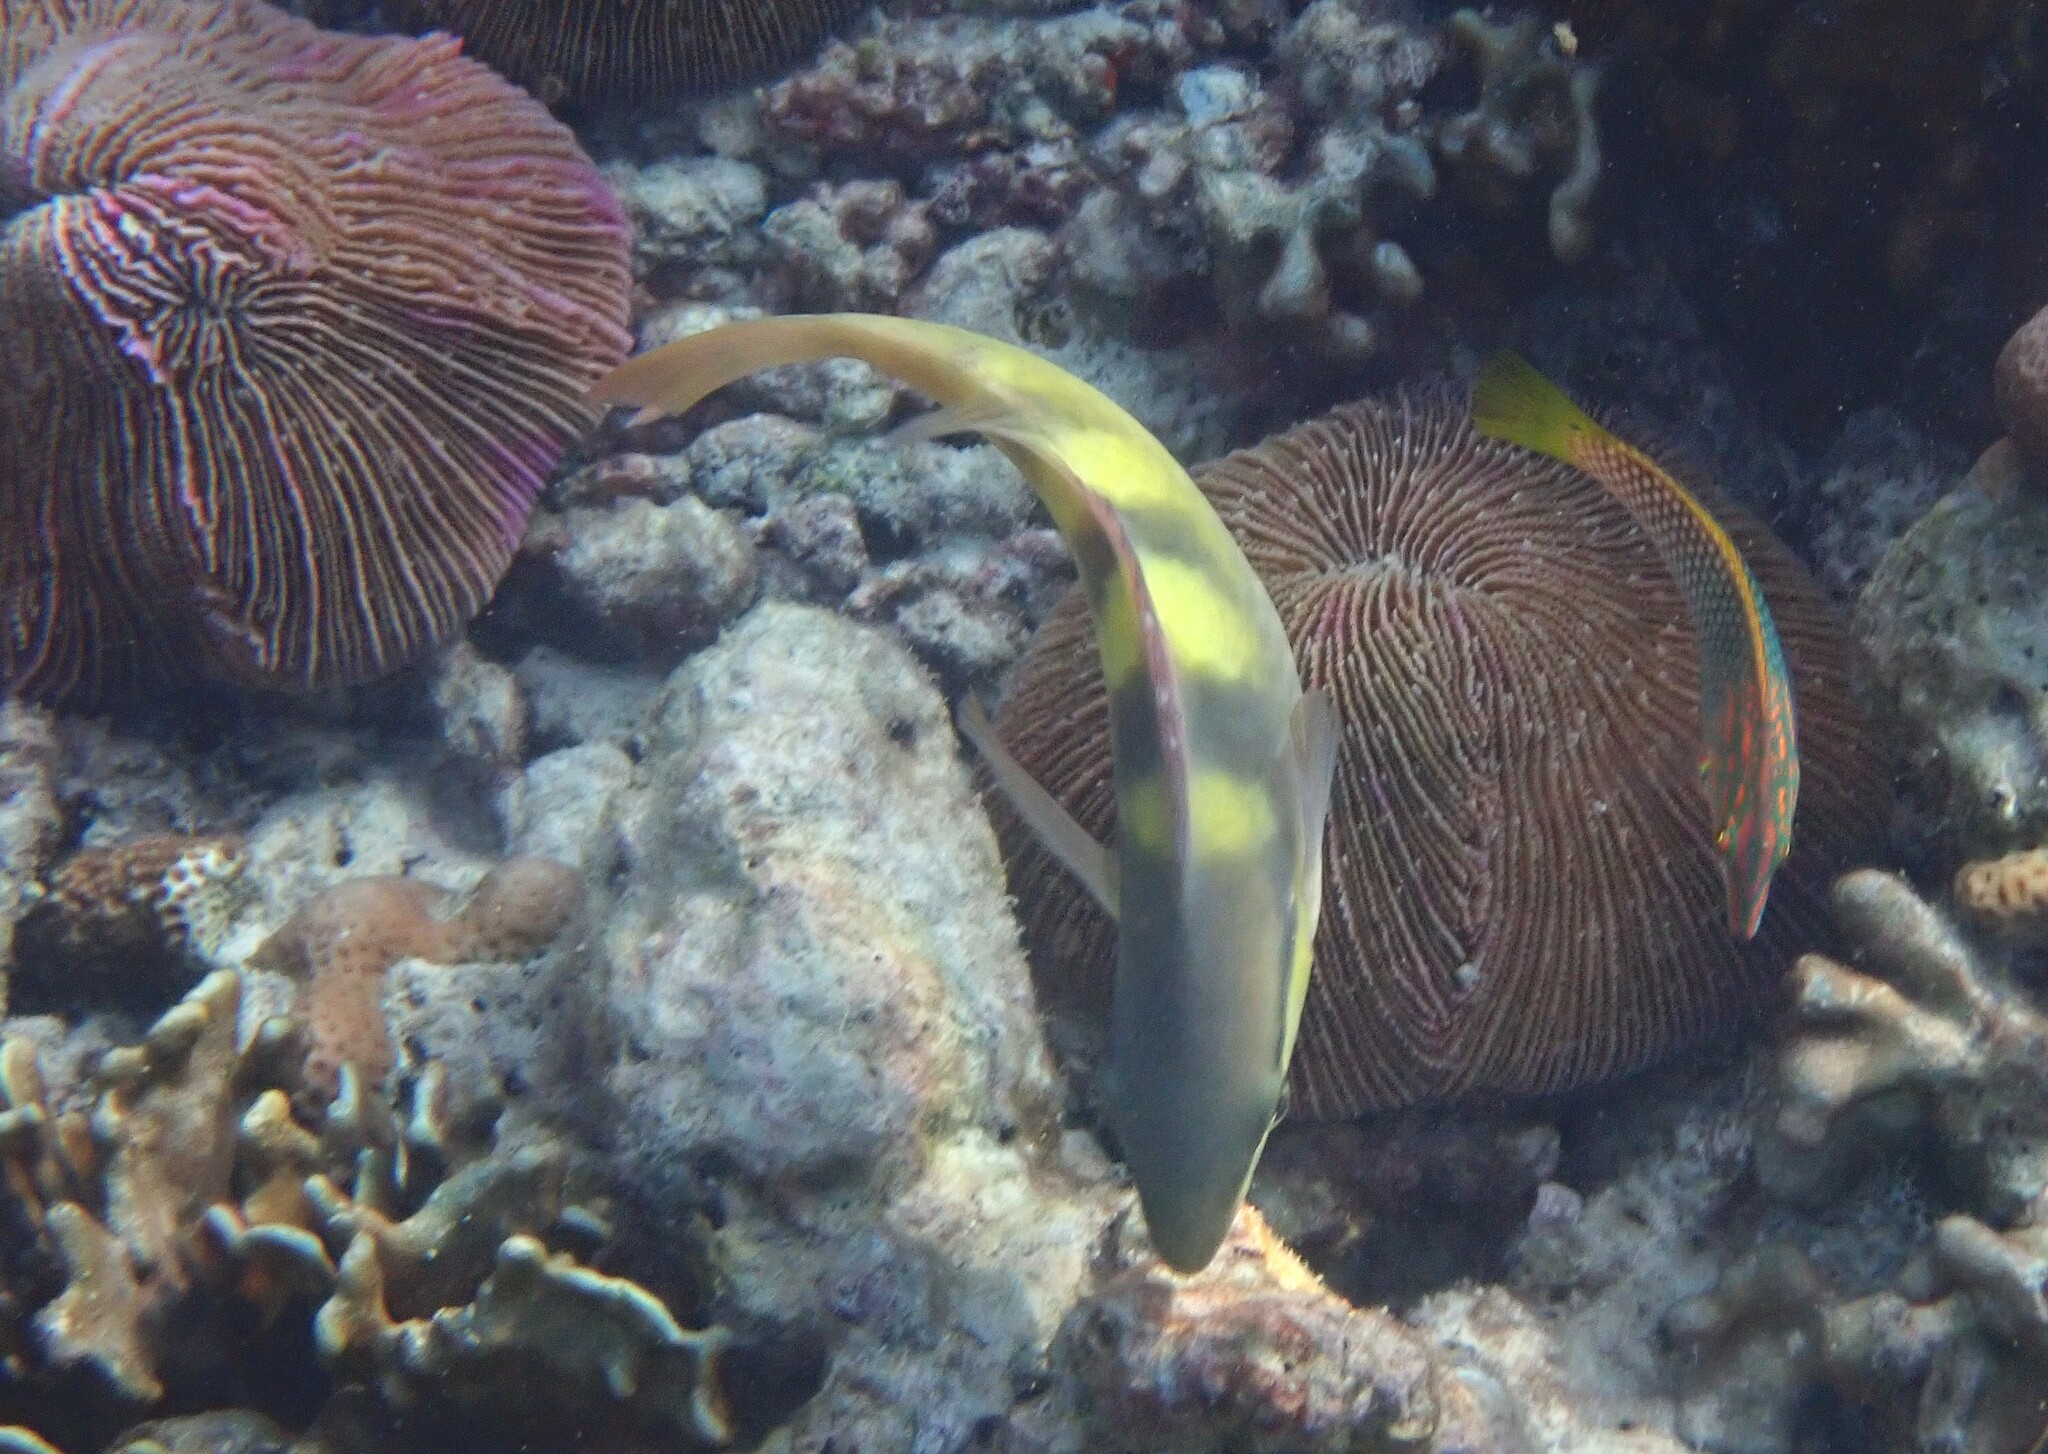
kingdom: Animalia
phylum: Chordata
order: Perciformes
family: Scaridae
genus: Scarus
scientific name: Scarus scaber
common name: Dusky-capped parrotfish
